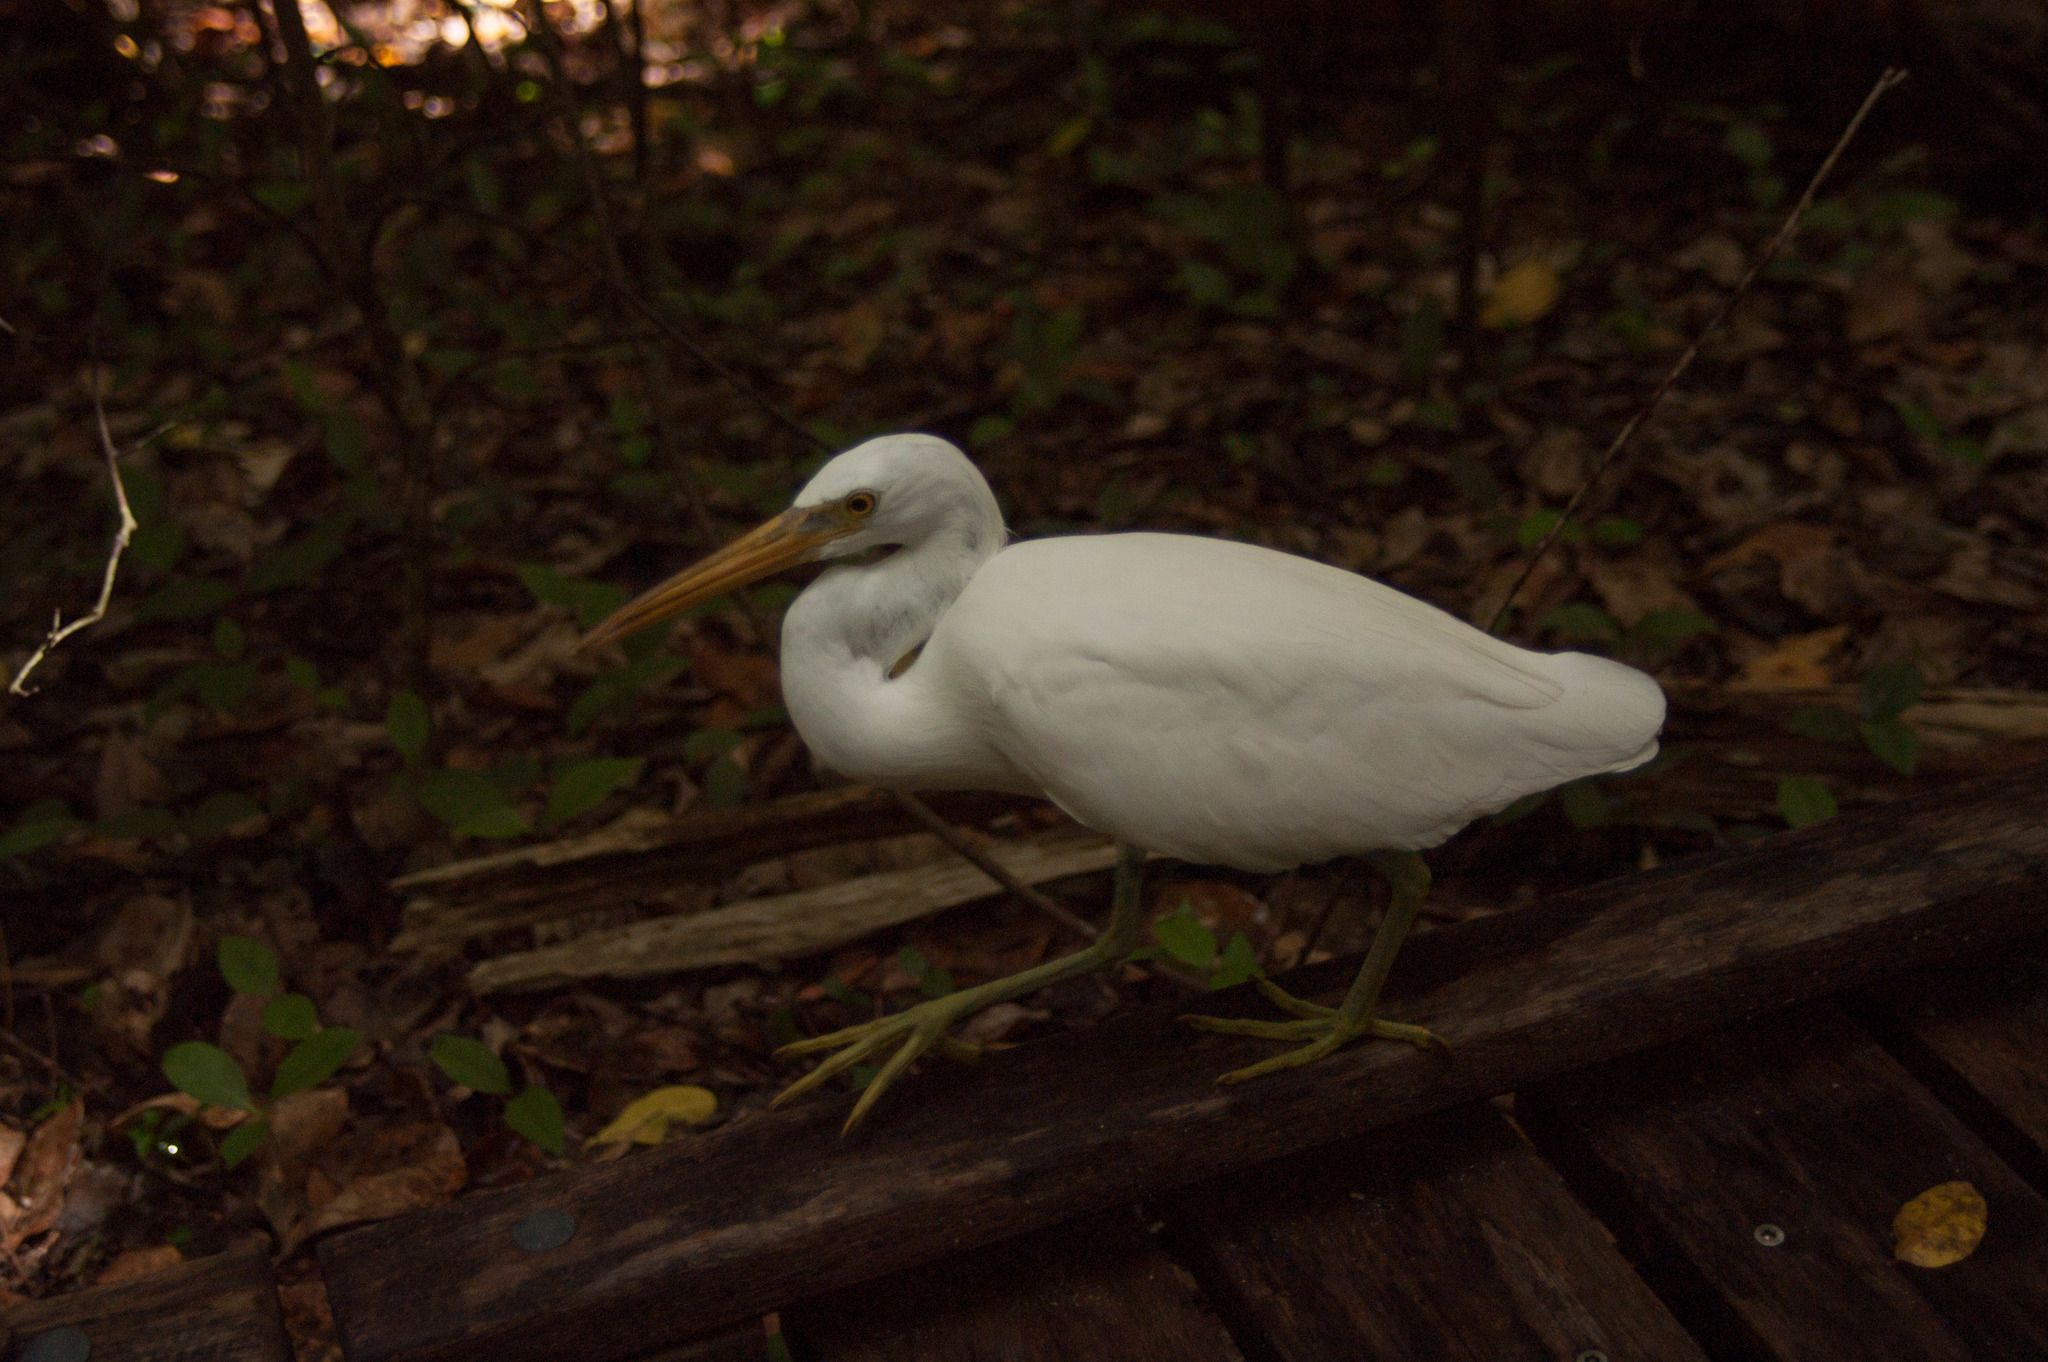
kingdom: Animalia
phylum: Chordata
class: Aves
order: Pelecaniformes
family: Ardeidae
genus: Egretta
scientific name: Egretta sacra
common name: Pacific reef heron
